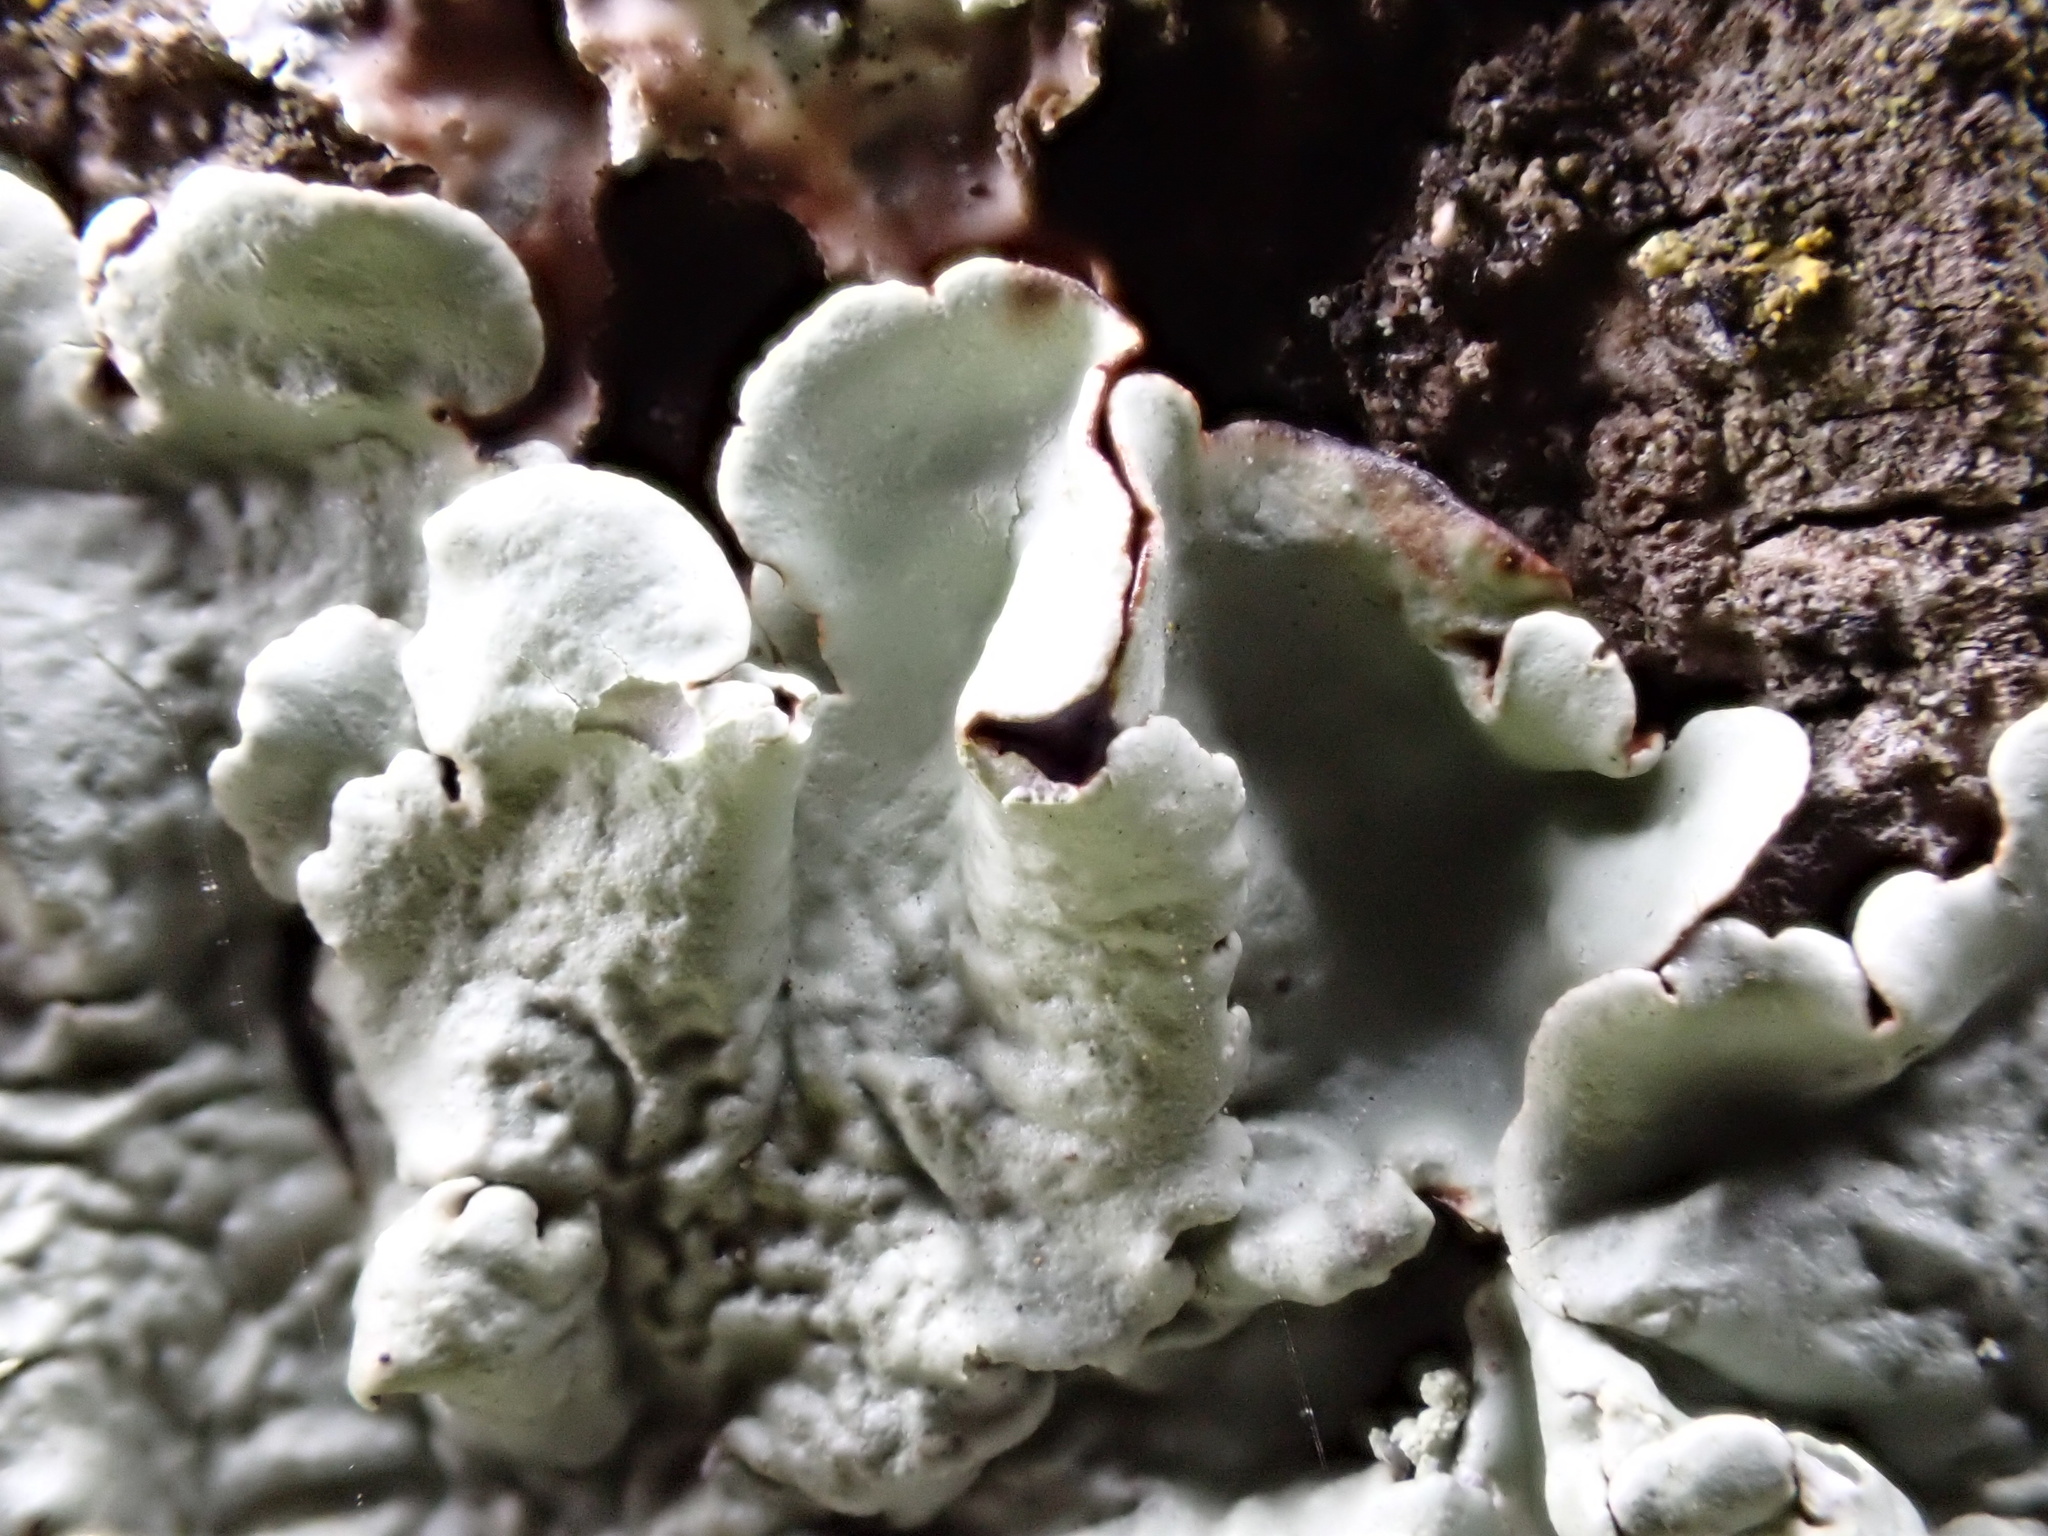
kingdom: Fungi
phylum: Ascomycota
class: Lecanoromycetes
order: Lecanorales
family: Parmeliaceae
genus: Flavoparmelia
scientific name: Flavoparmelia caperata
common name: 40-mile per hour lichen
